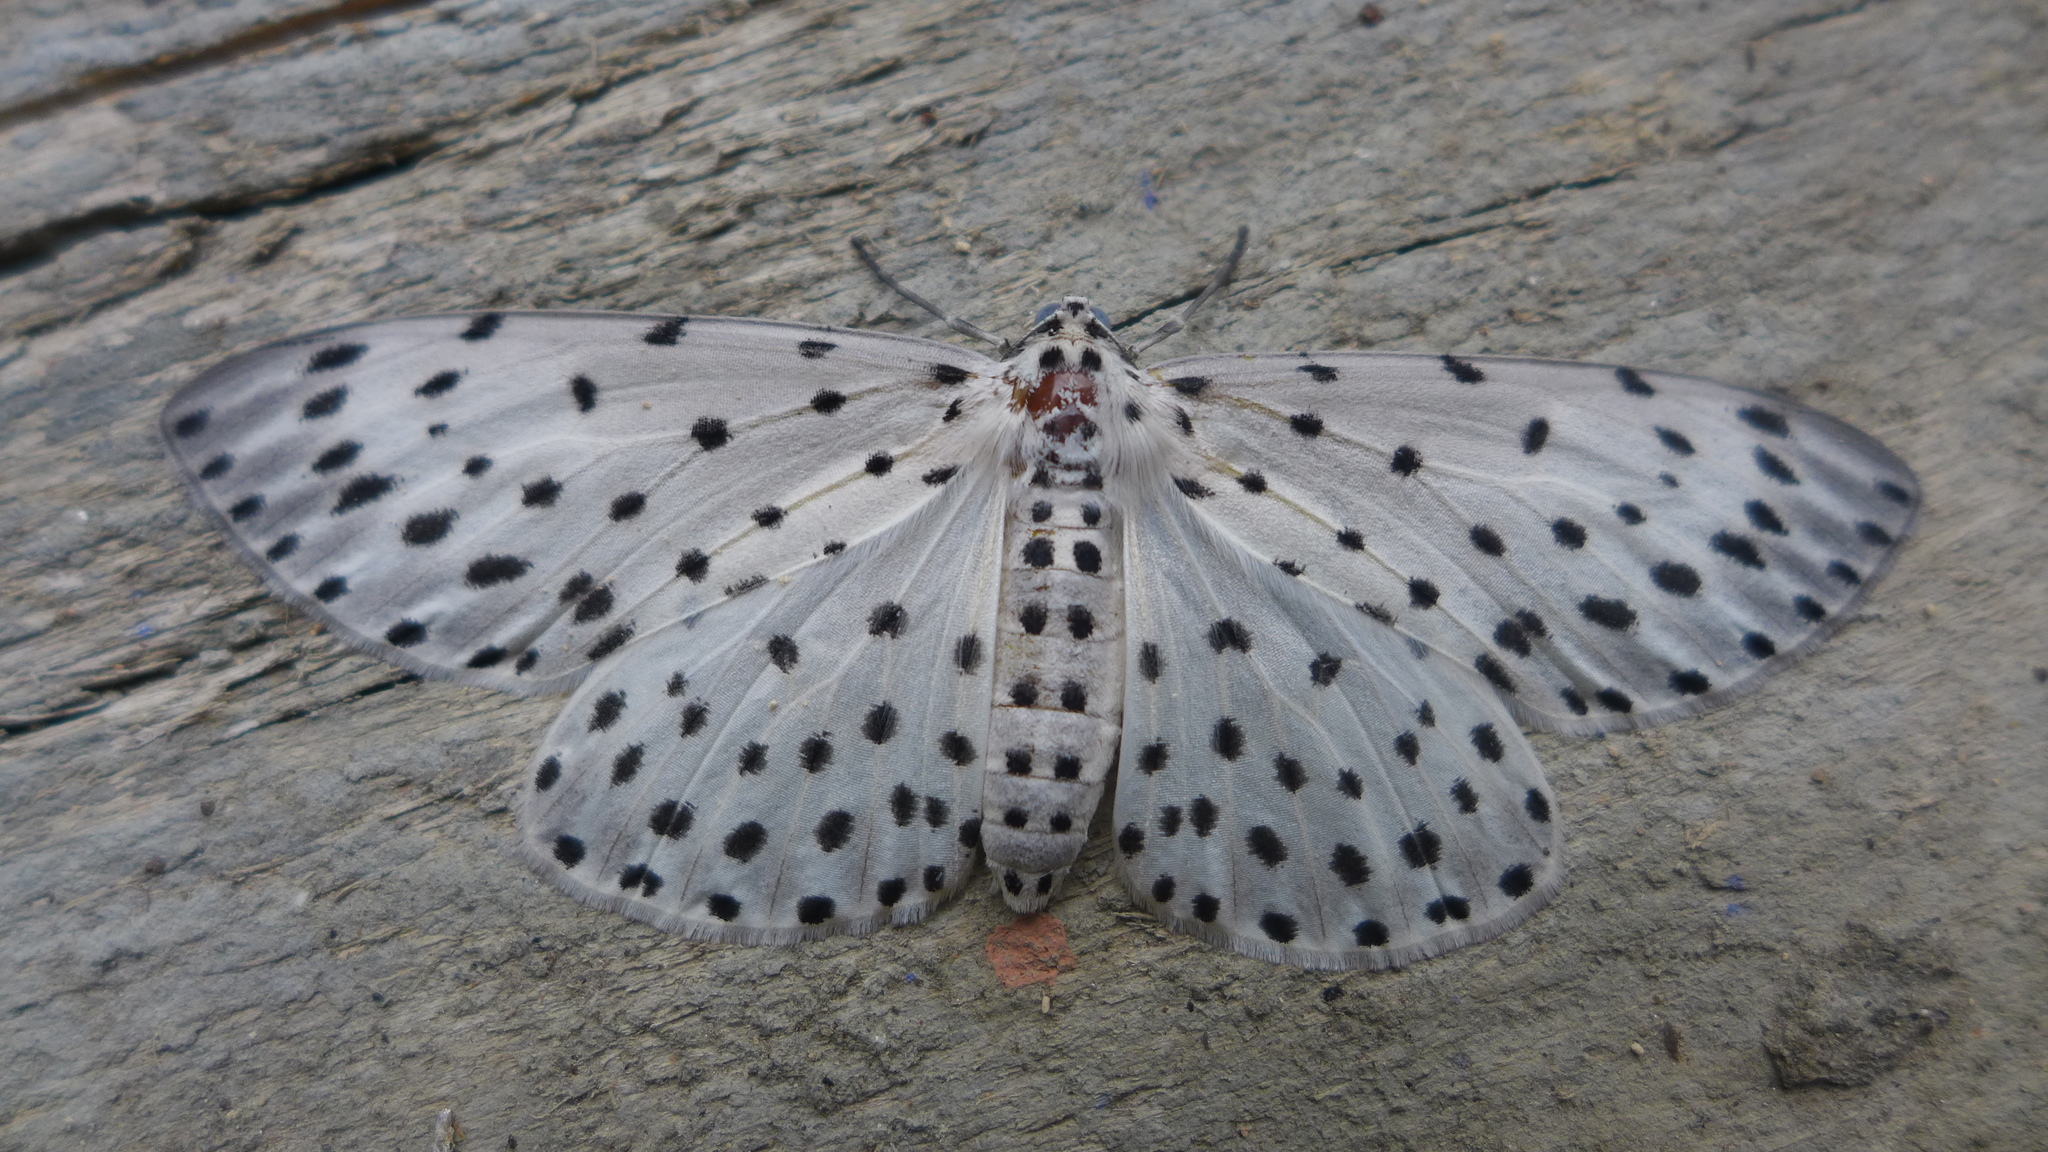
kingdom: Animalia
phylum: Arthropoda
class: Insecta
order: Lepidoptera
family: Geometridae
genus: Antipercnia
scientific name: Antipercnia belluaria
